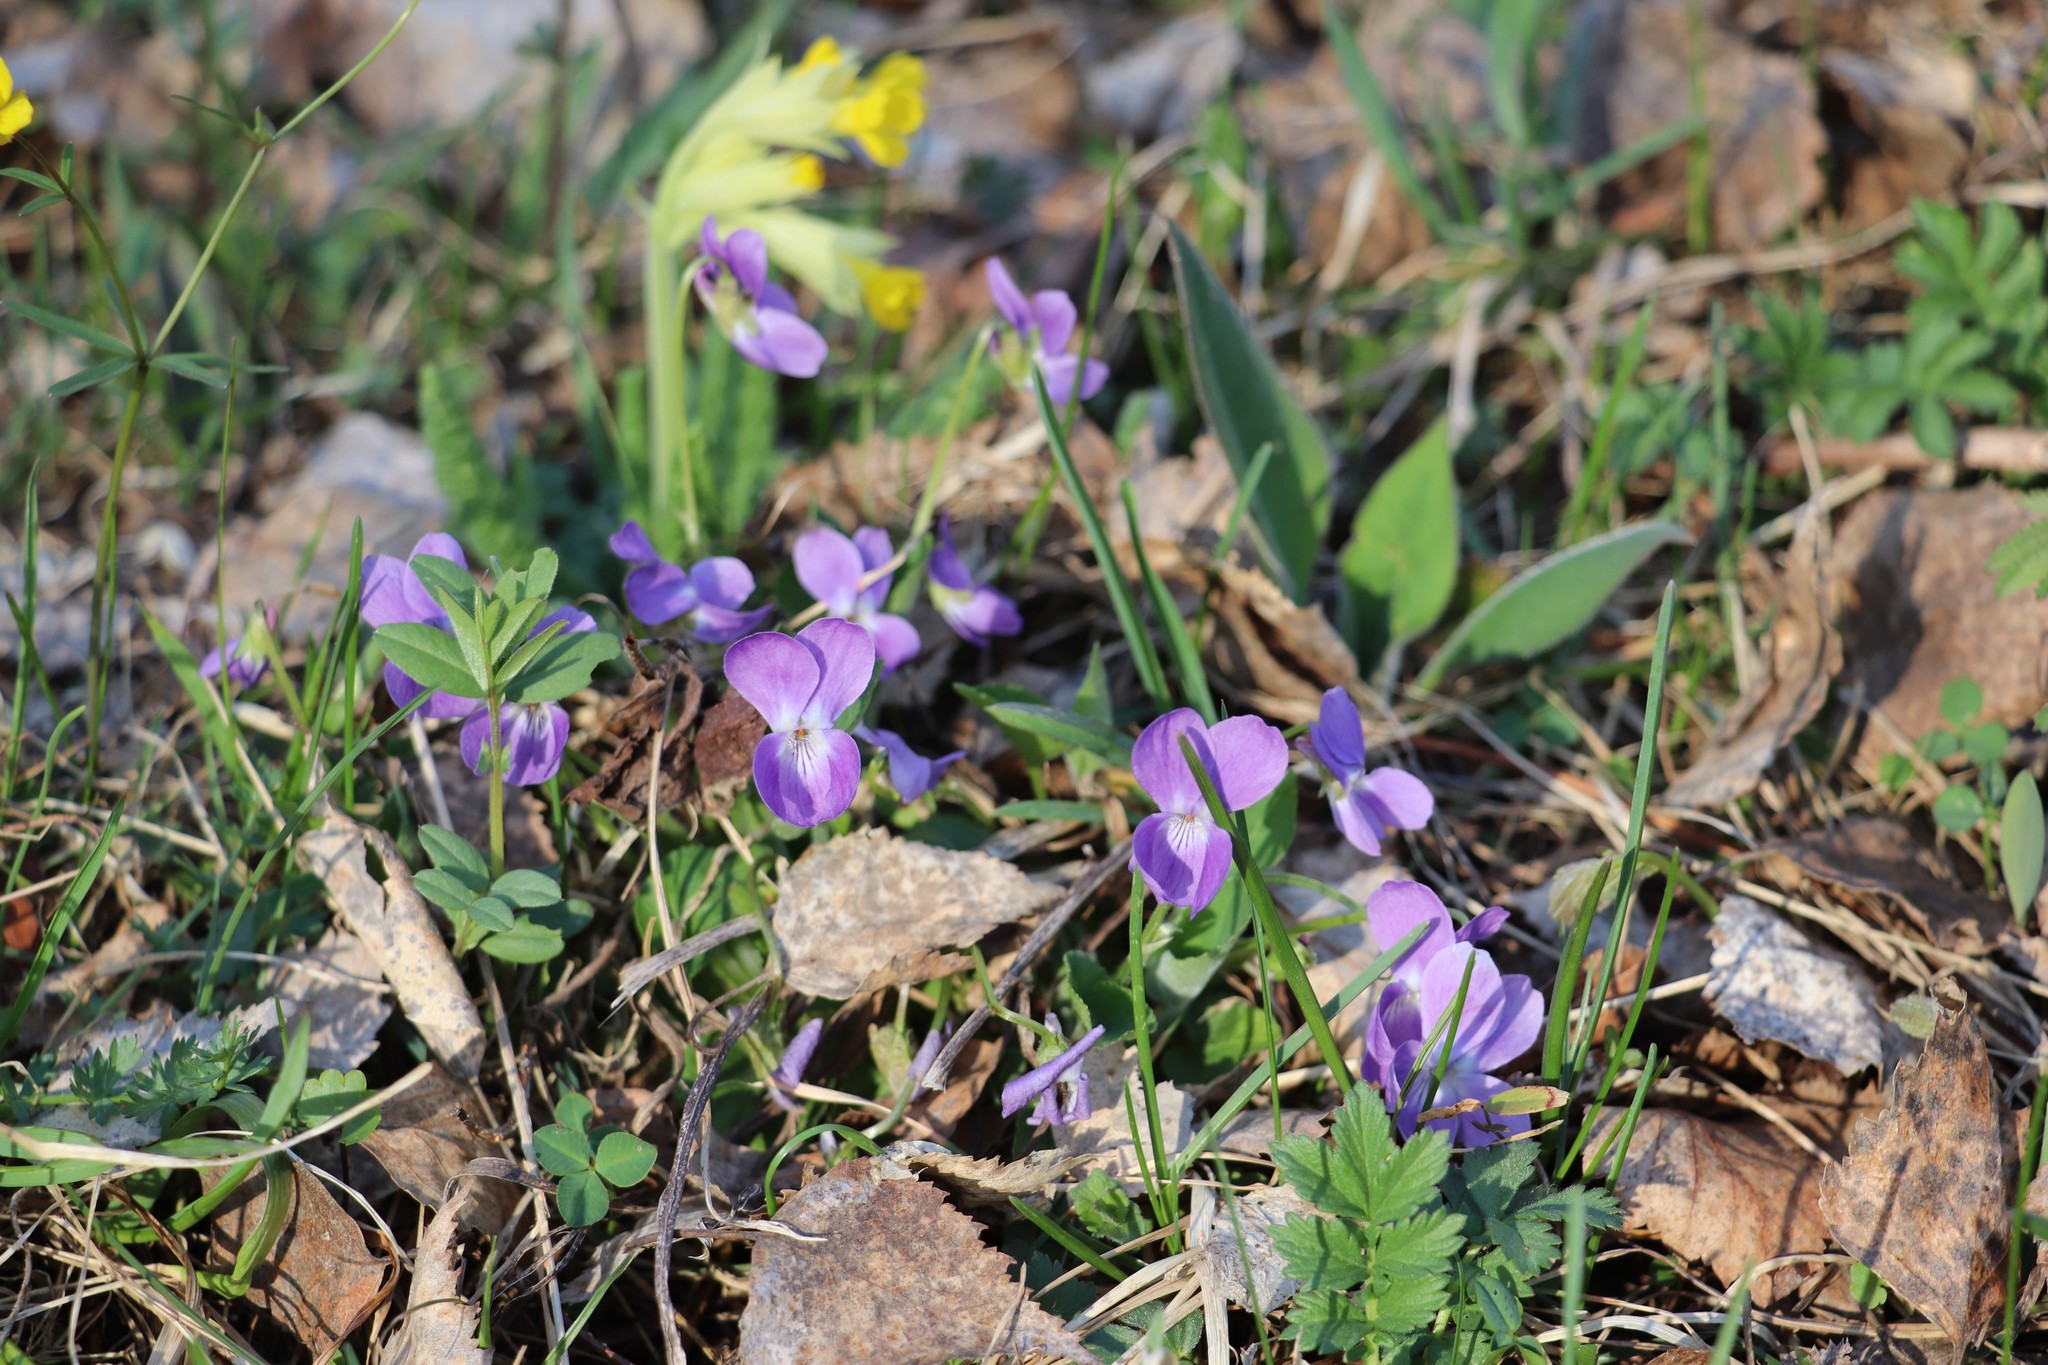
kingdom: Plantae
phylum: Tracheophyta
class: Magnoliopsida
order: Malpighiales
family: Violaceae
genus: Viola
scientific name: Viola hirta
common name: Hairy violet
